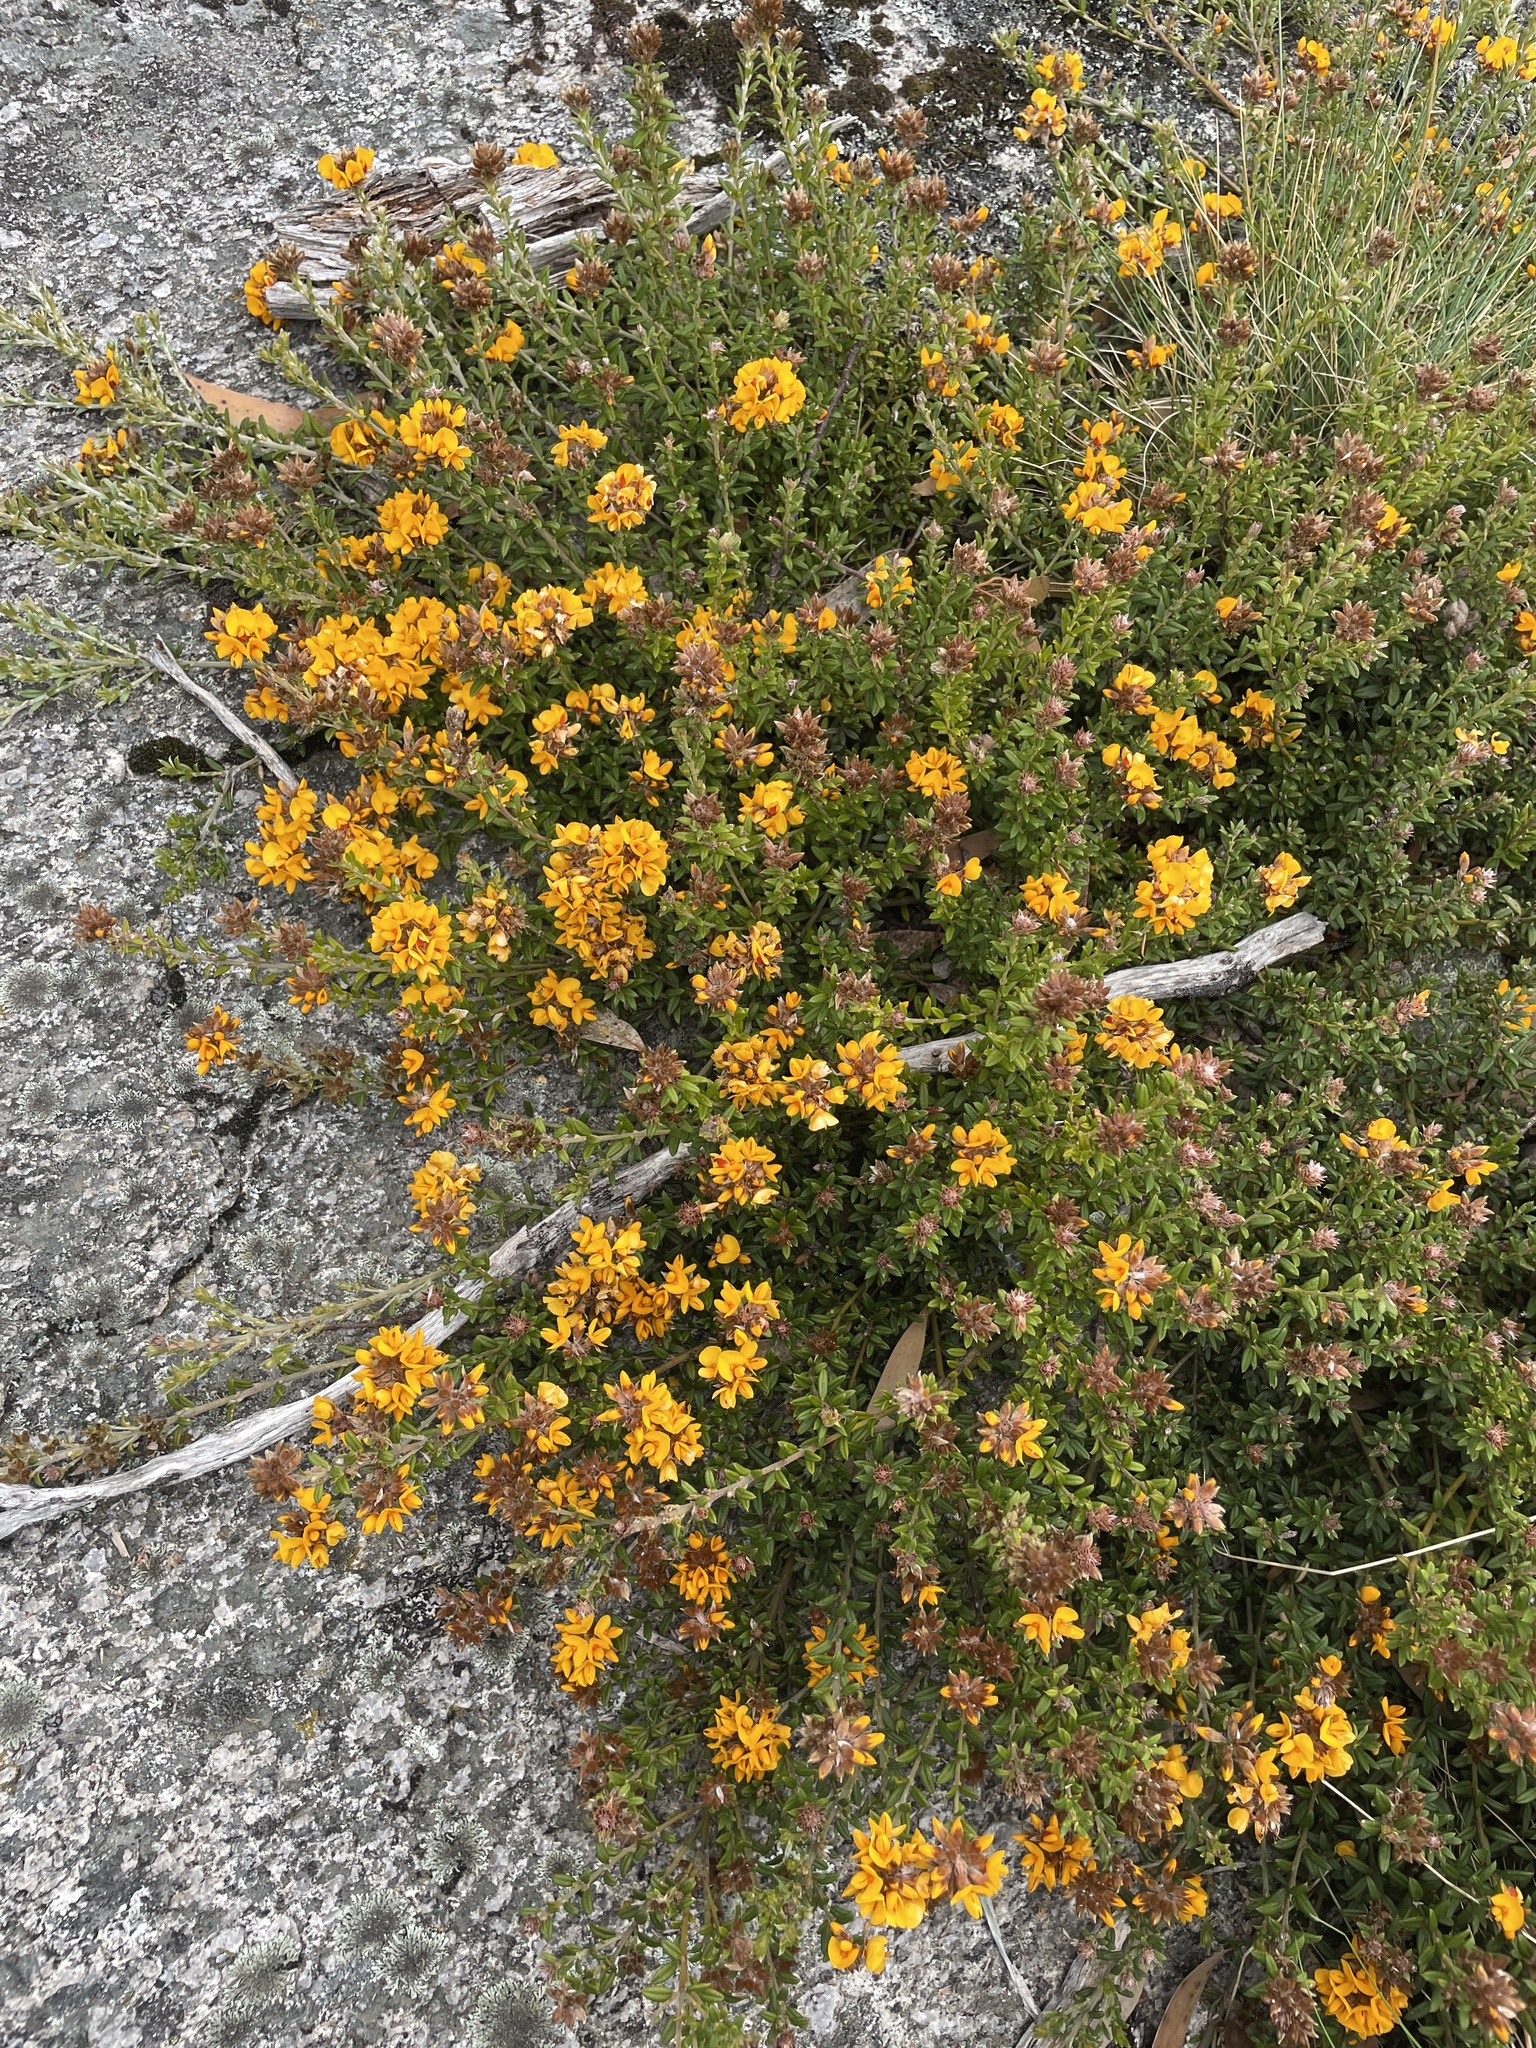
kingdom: Plantae
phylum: Tracheophyta
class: Magnoliopsida
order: Fabales
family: Fabaceae
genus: Oxylobium
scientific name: Oxylobium ellipticum
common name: Golden shaggy-pea
